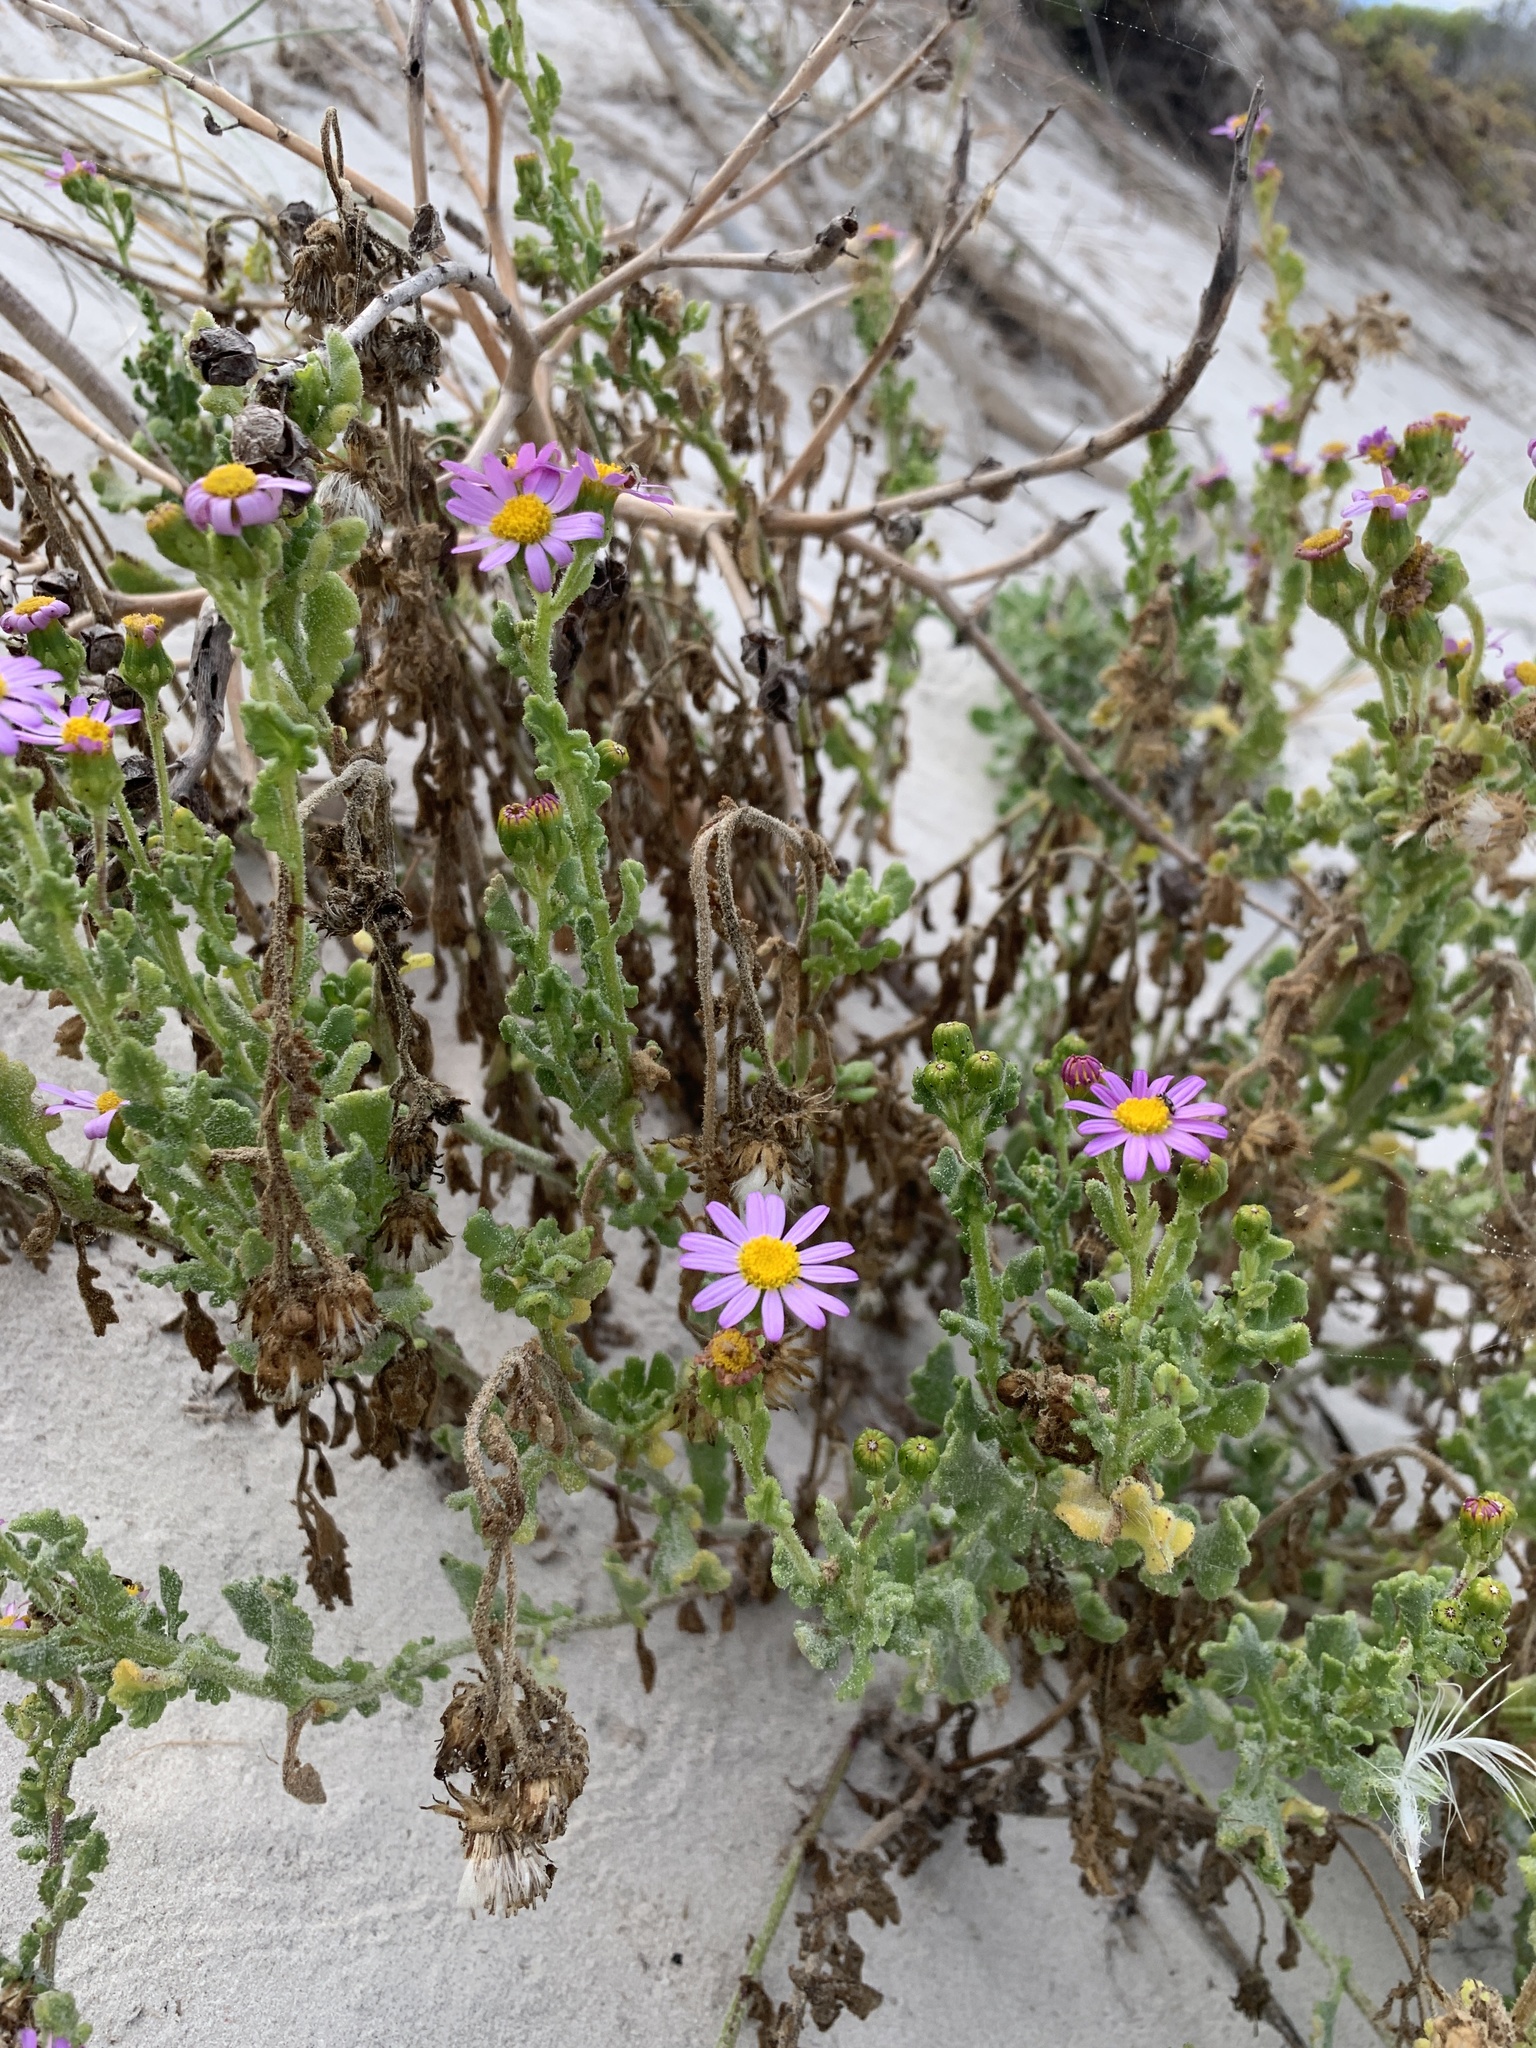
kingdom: Plantae
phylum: Tracheophyta
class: Magnoliopsida
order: Asterales
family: Asteraceae
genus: Senecio
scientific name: Senecio elegans
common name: Purple groundsel
